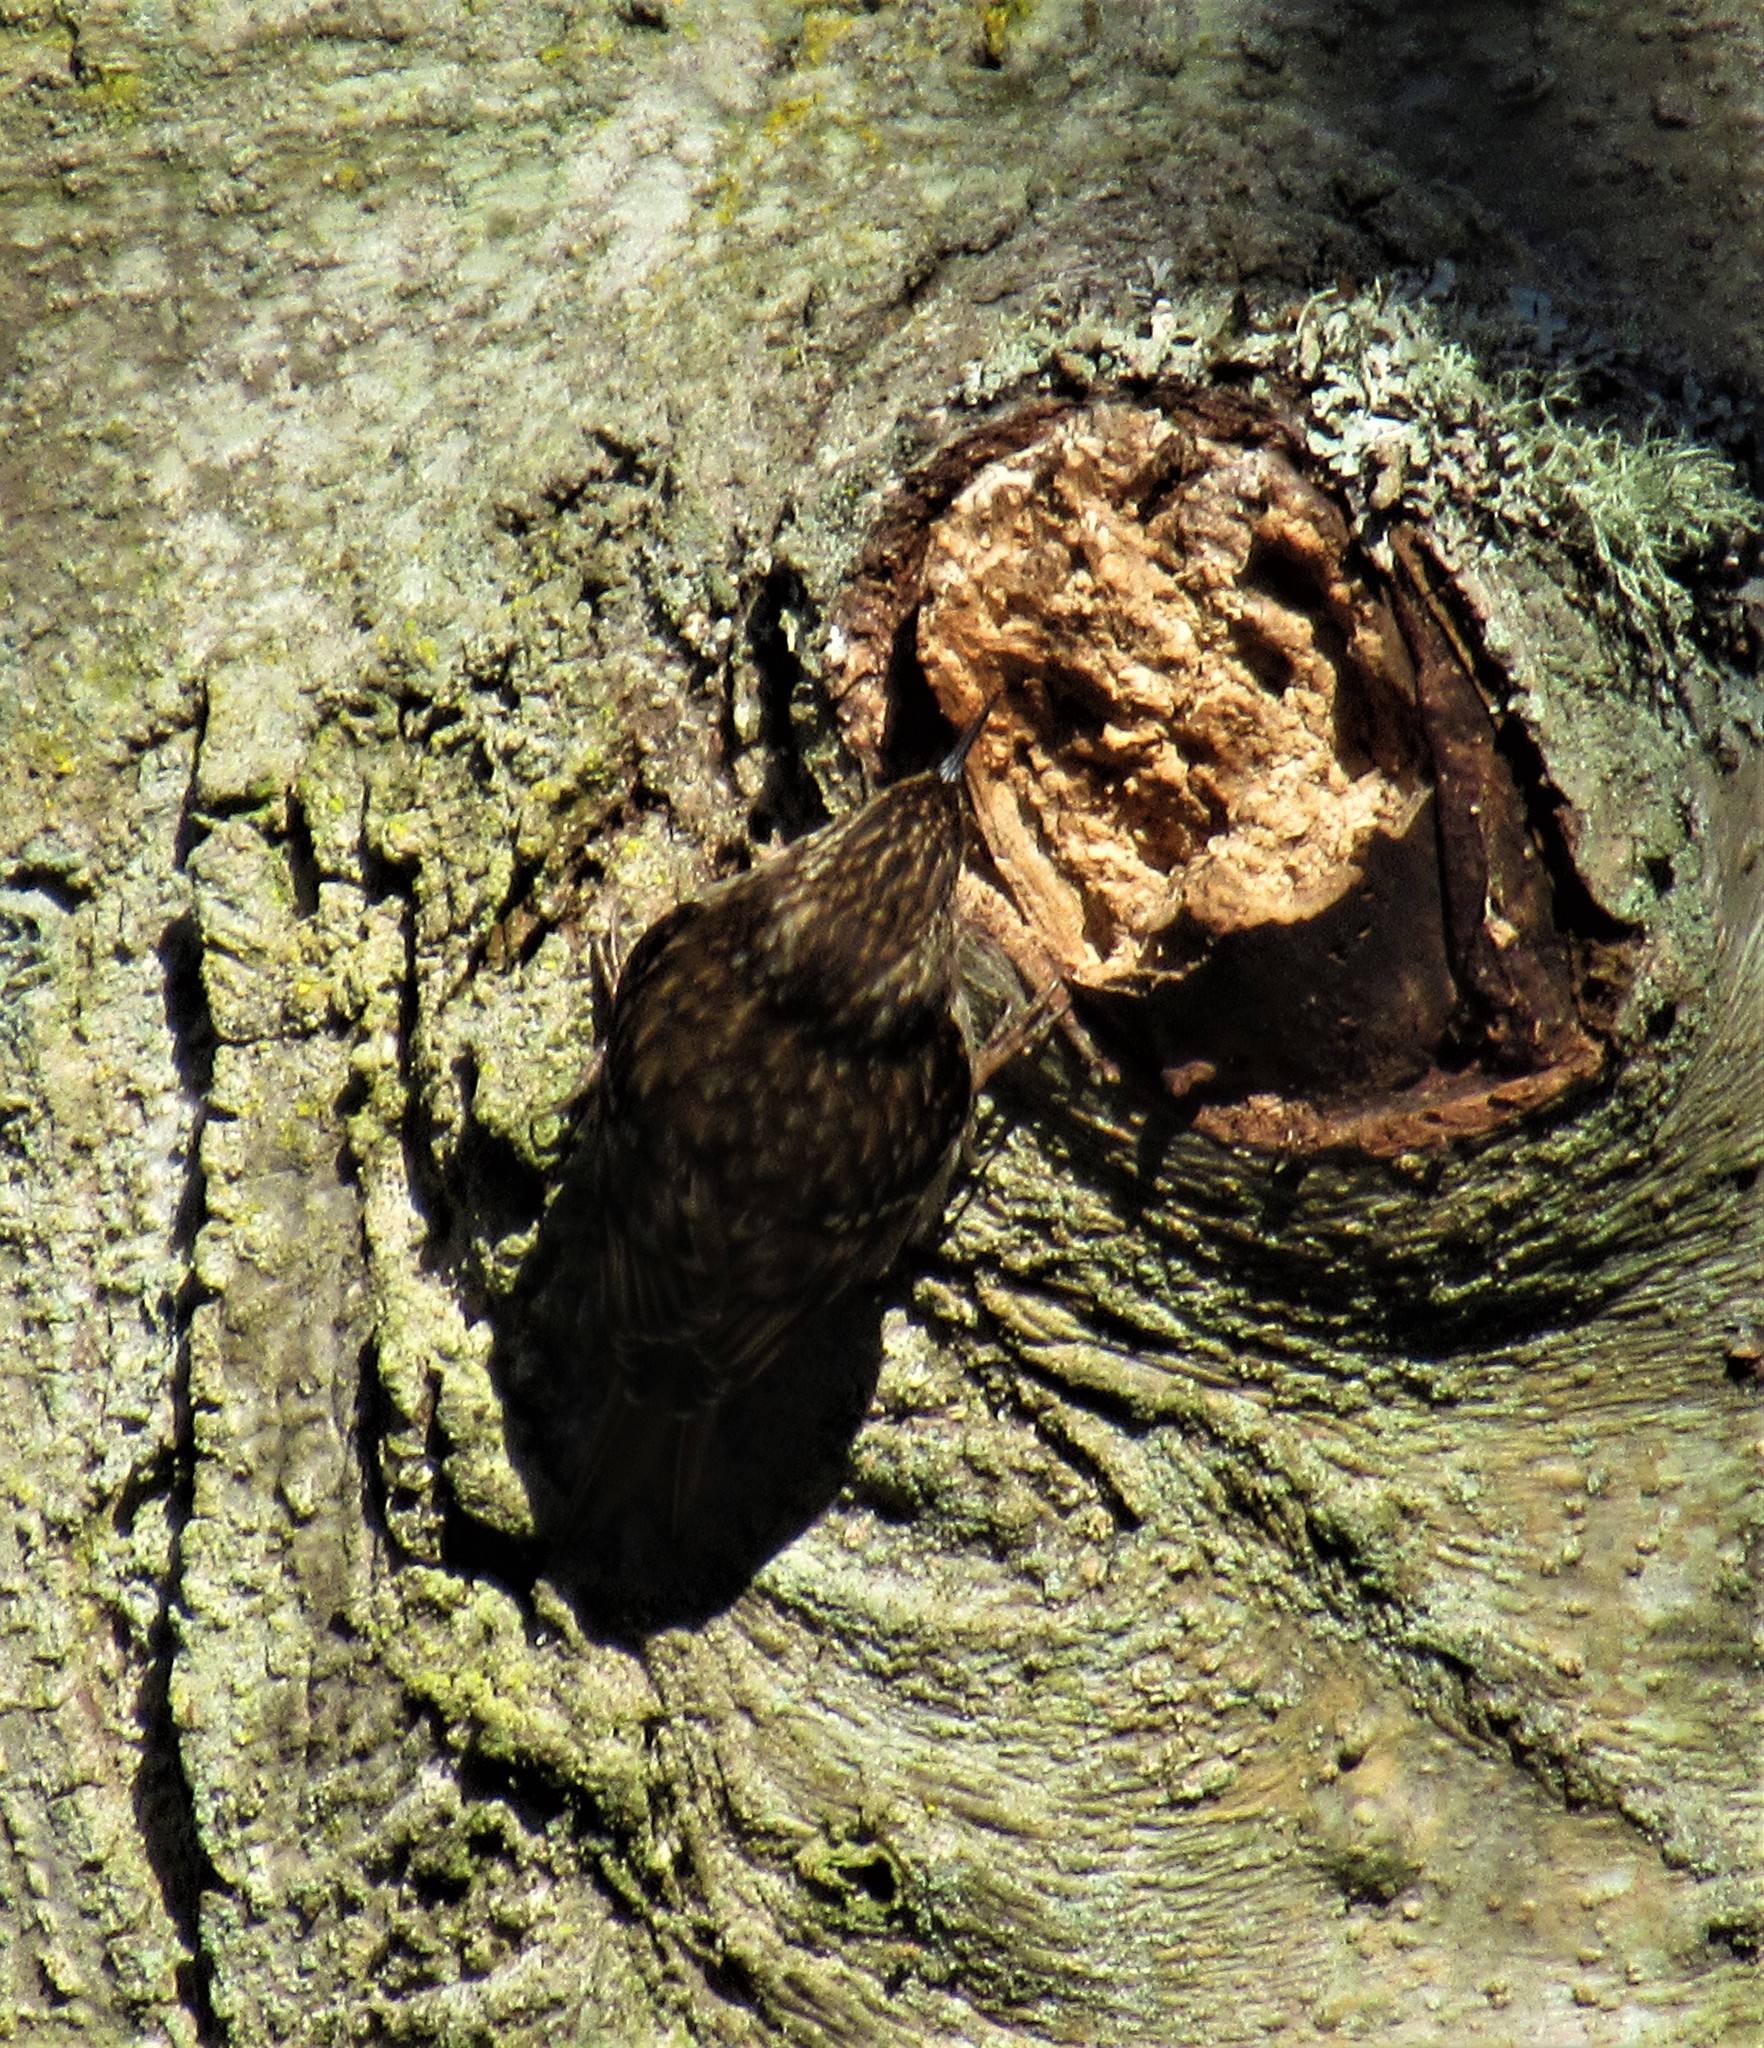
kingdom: Animalia
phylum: Chordata
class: Aves
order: Passeriformes
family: Certhiidae
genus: Certhia
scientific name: Certhia americana
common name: Brown creeper
